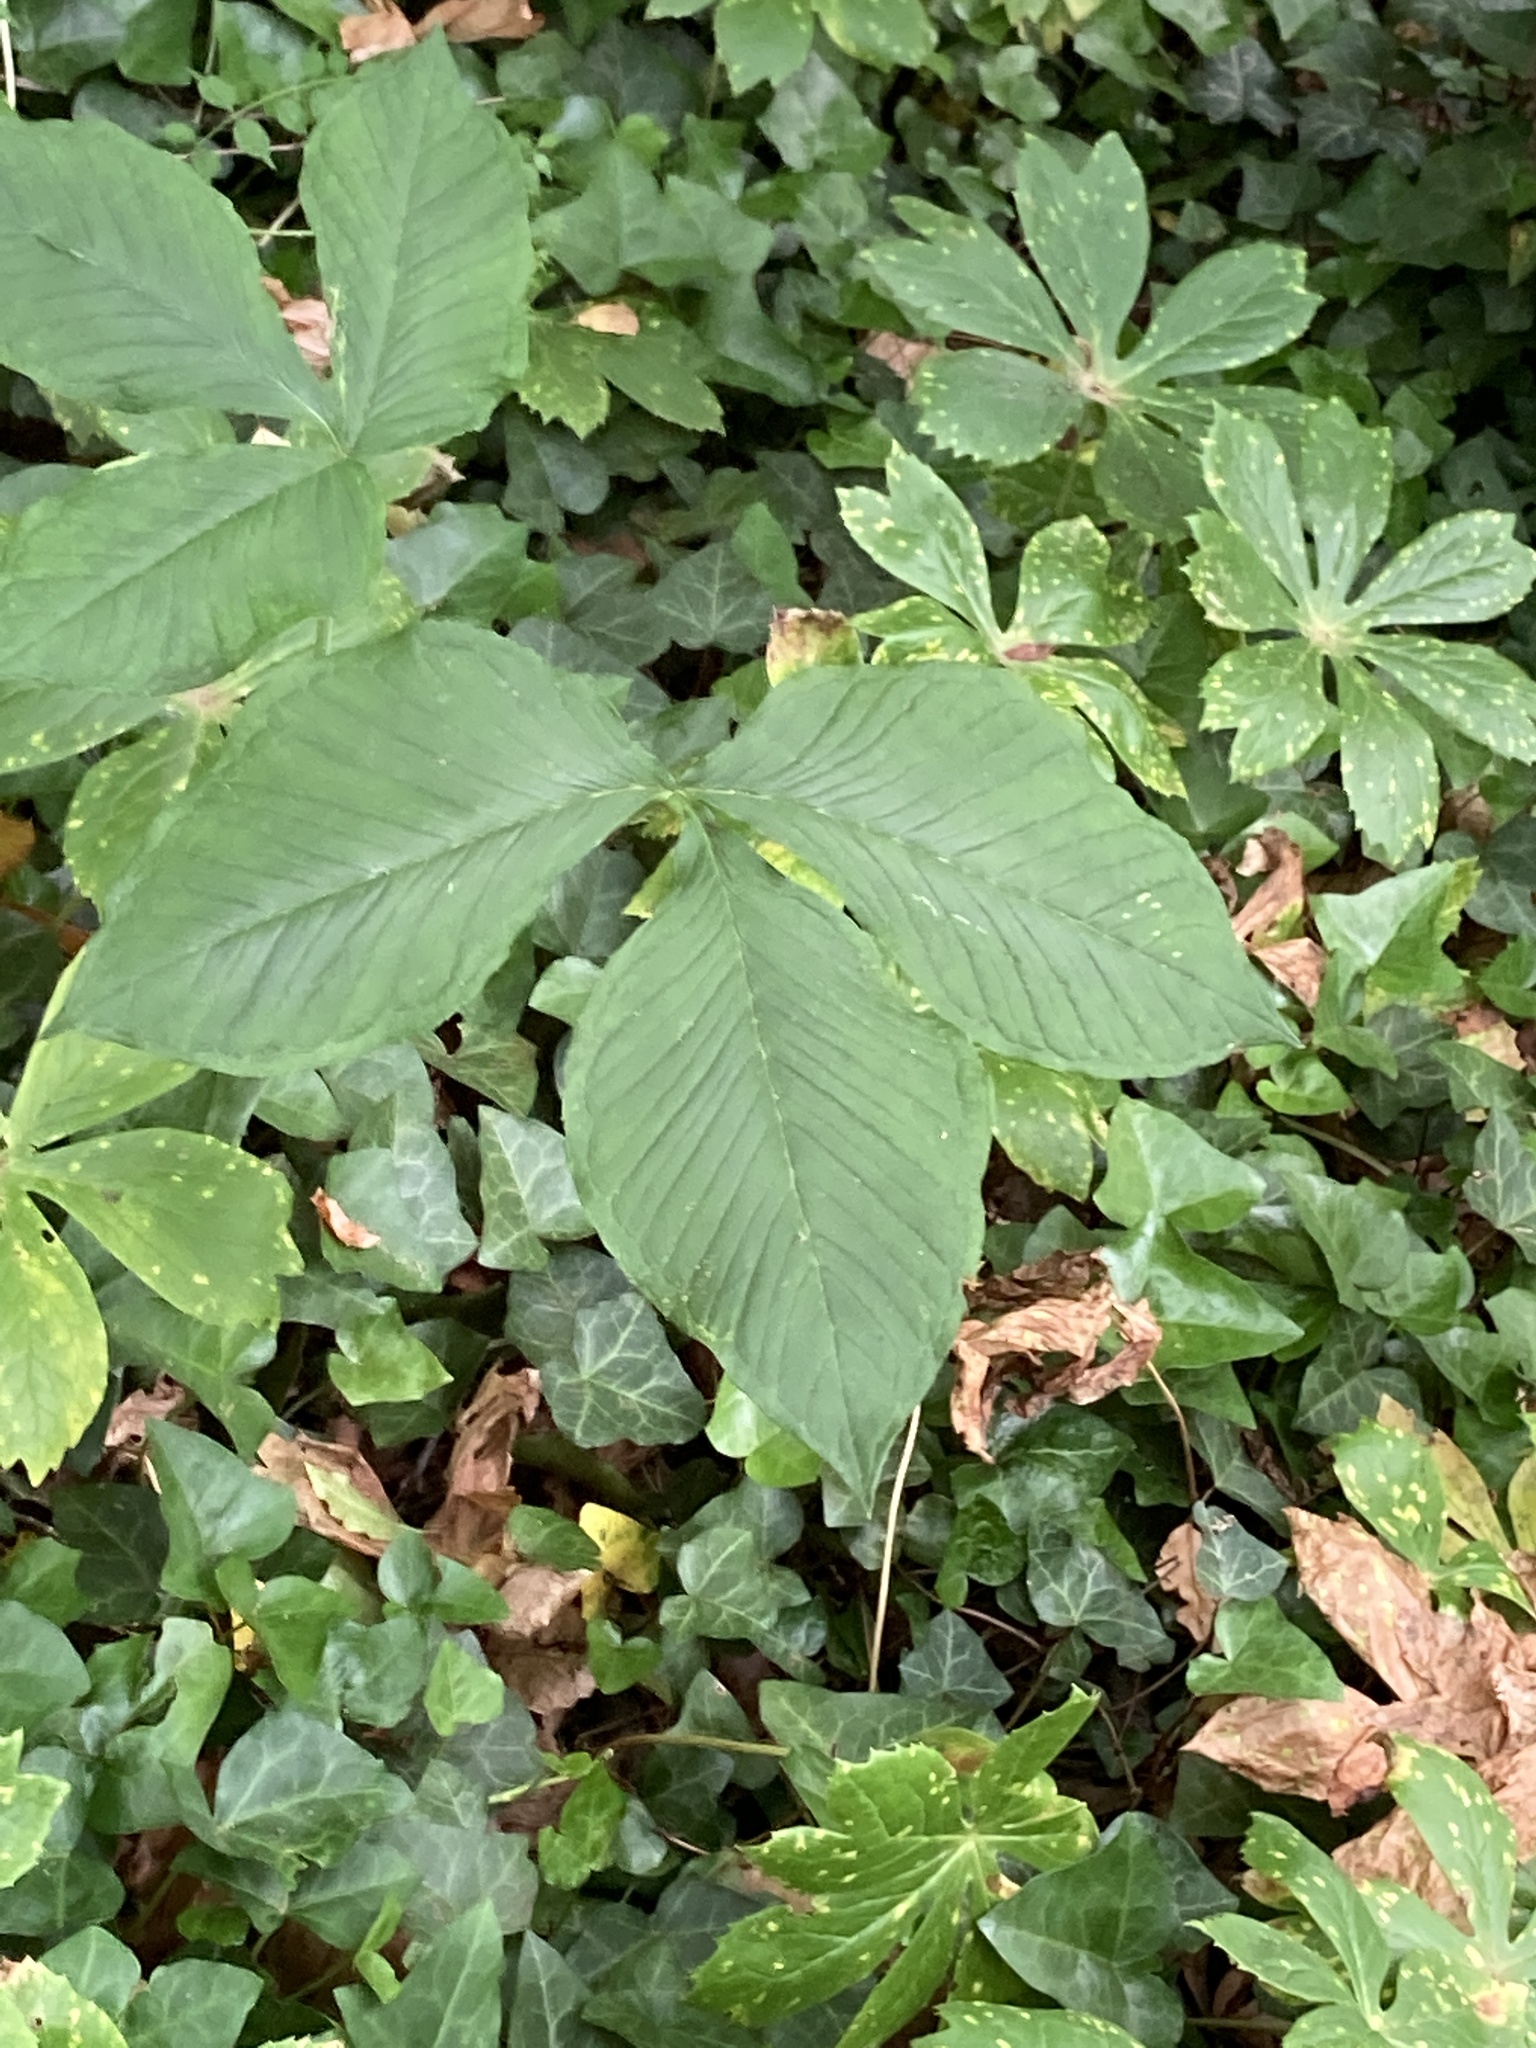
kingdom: Plantae
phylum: Tracheophyta
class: Liliopsida
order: Alismatales
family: Araceae
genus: Arisaema
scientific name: Arisaema triphyllum
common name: Jack-in-the-pulpit
